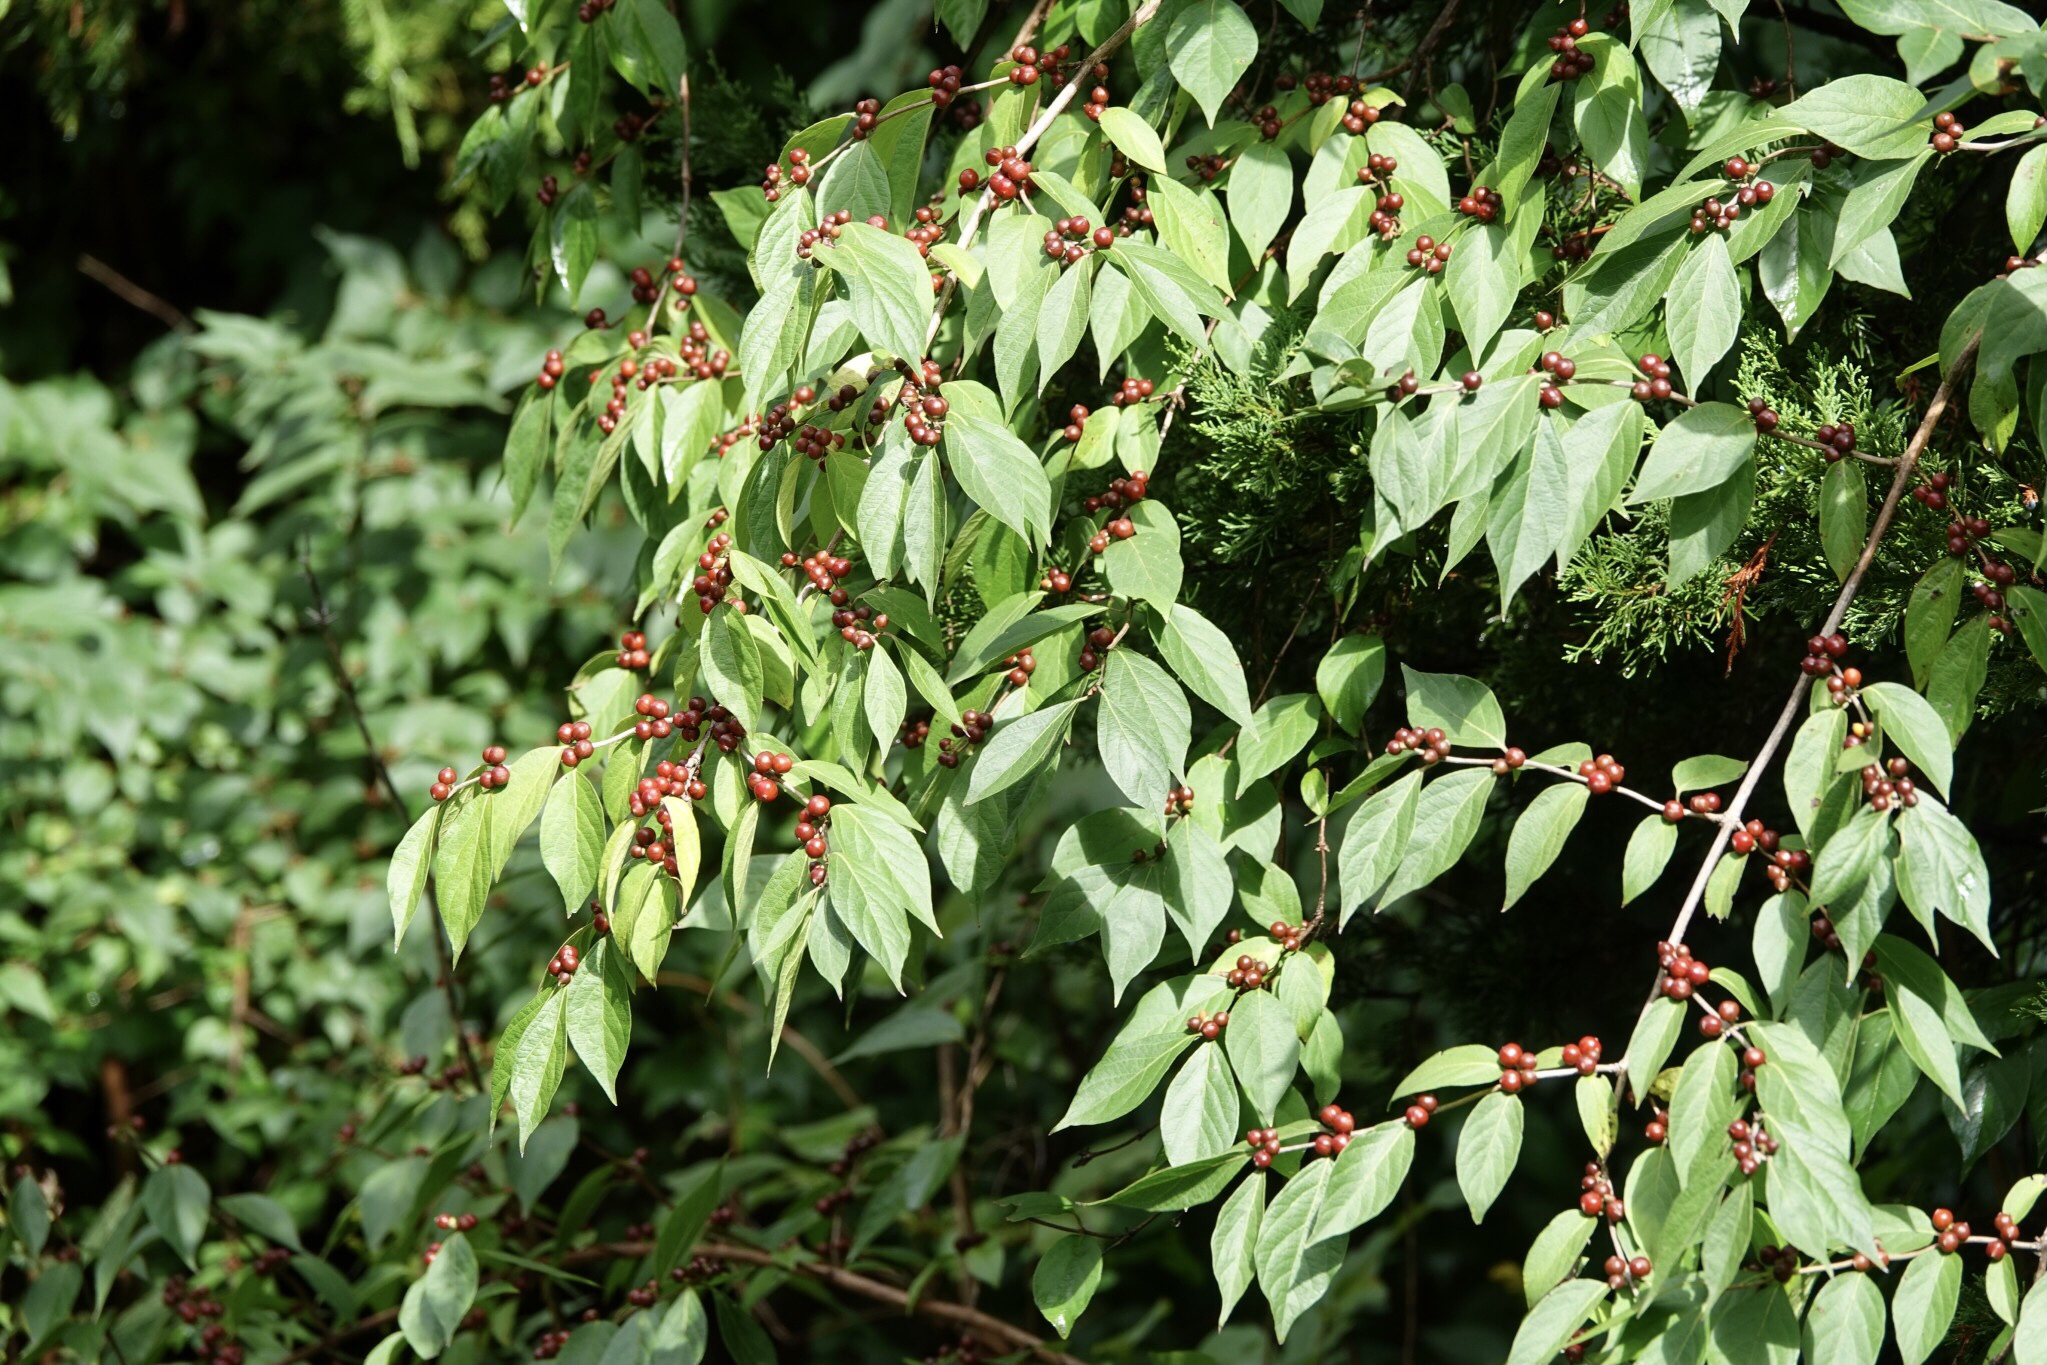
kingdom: Plantae
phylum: Tracheophyta
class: Magnoliopsida
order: Dipsacales
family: Caprifoliaceae
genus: Lonicera
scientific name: Lonicera maackii
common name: Amur honeysuckle
